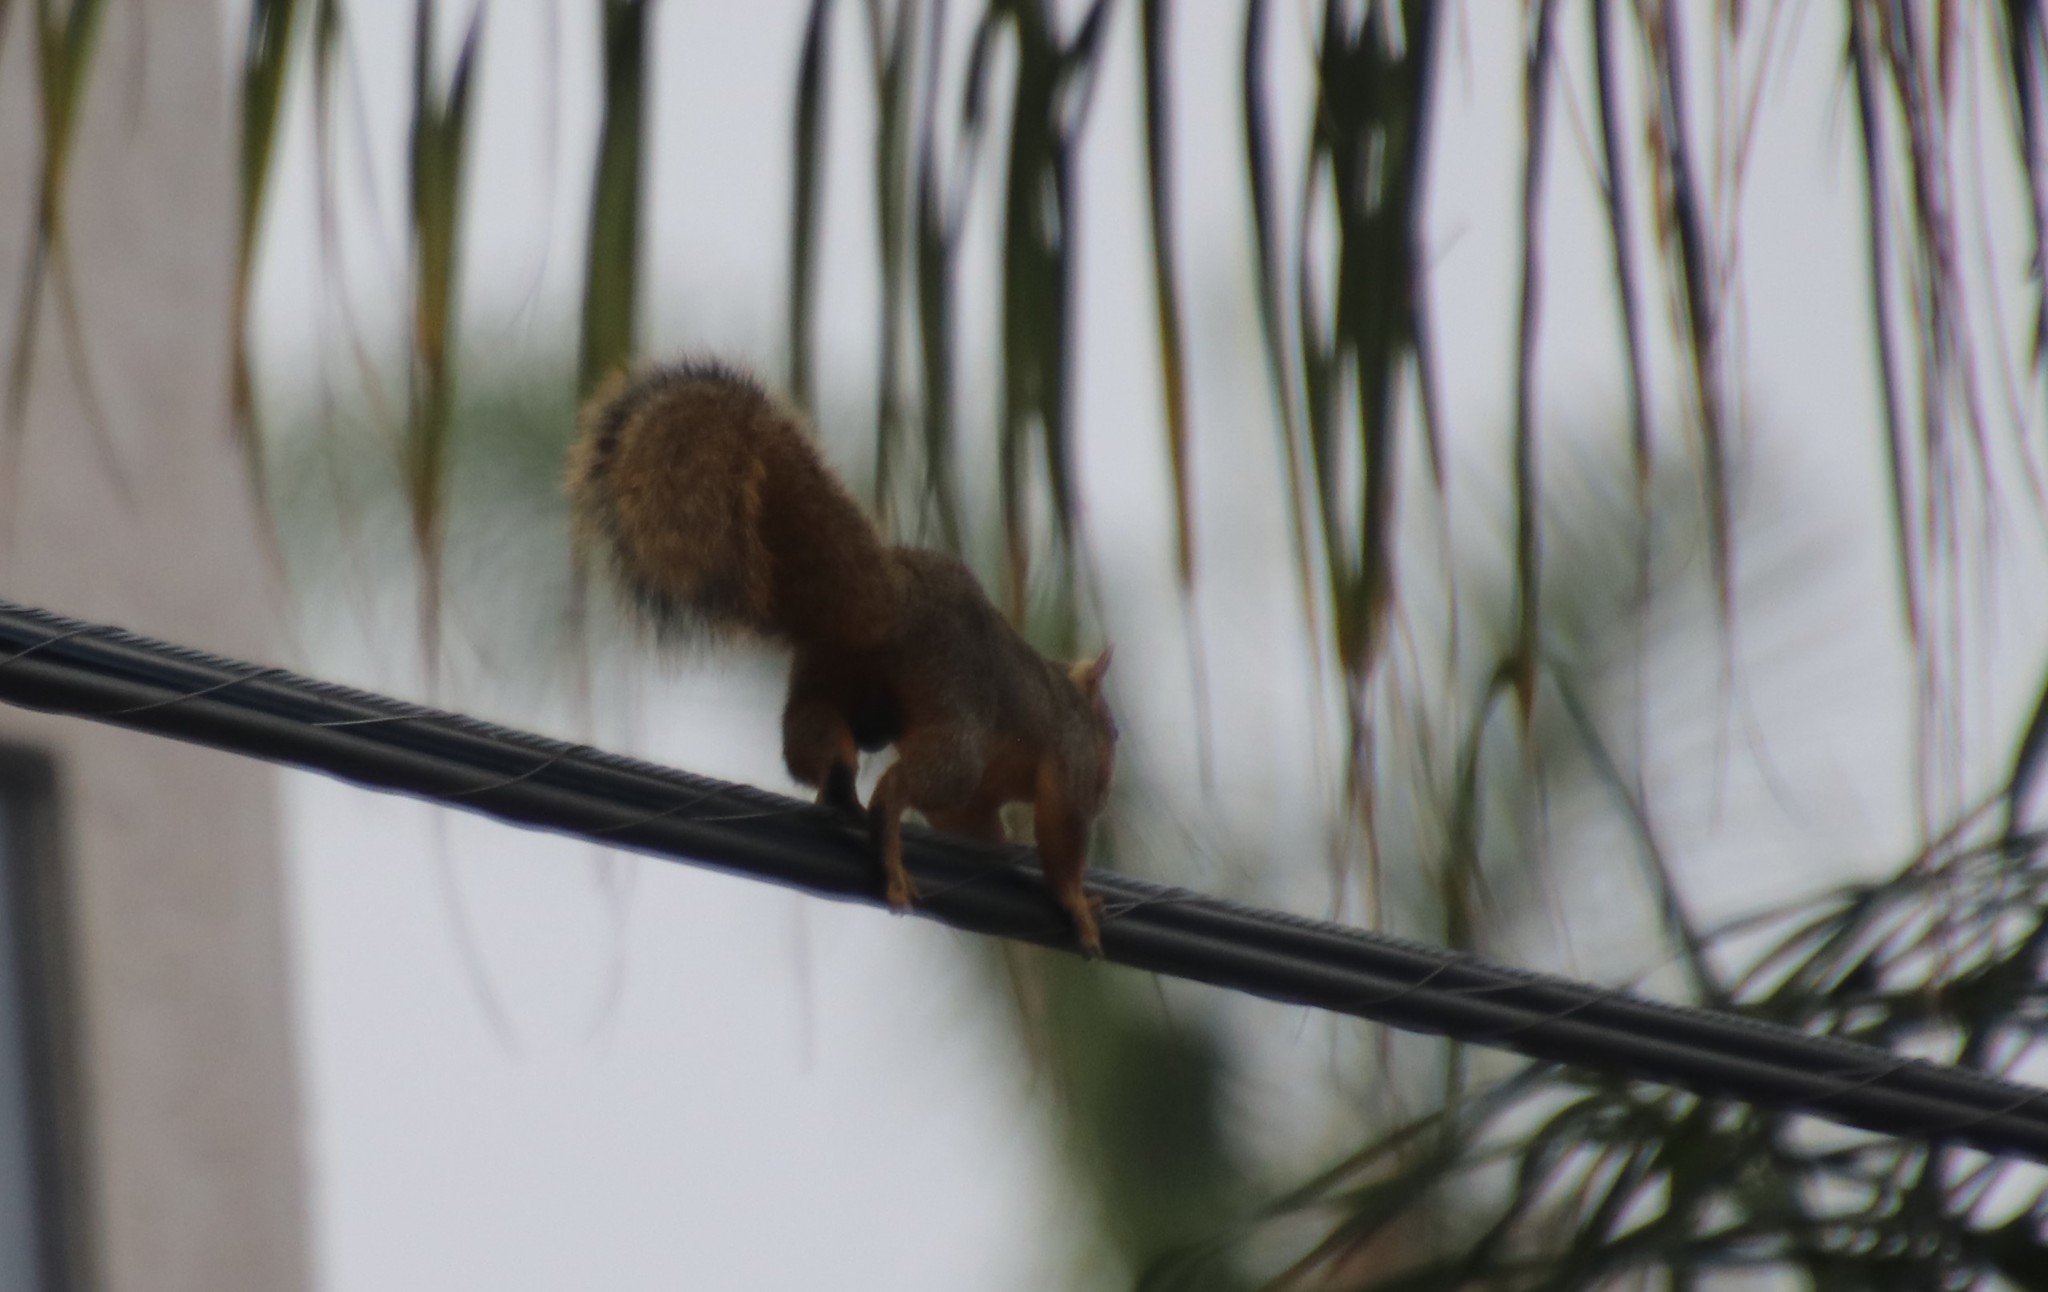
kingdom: Animalia
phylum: Chordata
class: Mammalia
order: Rodentia
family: Sciuridae
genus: Sciurus
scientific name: Sciurus niger
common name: Fox squirrel
